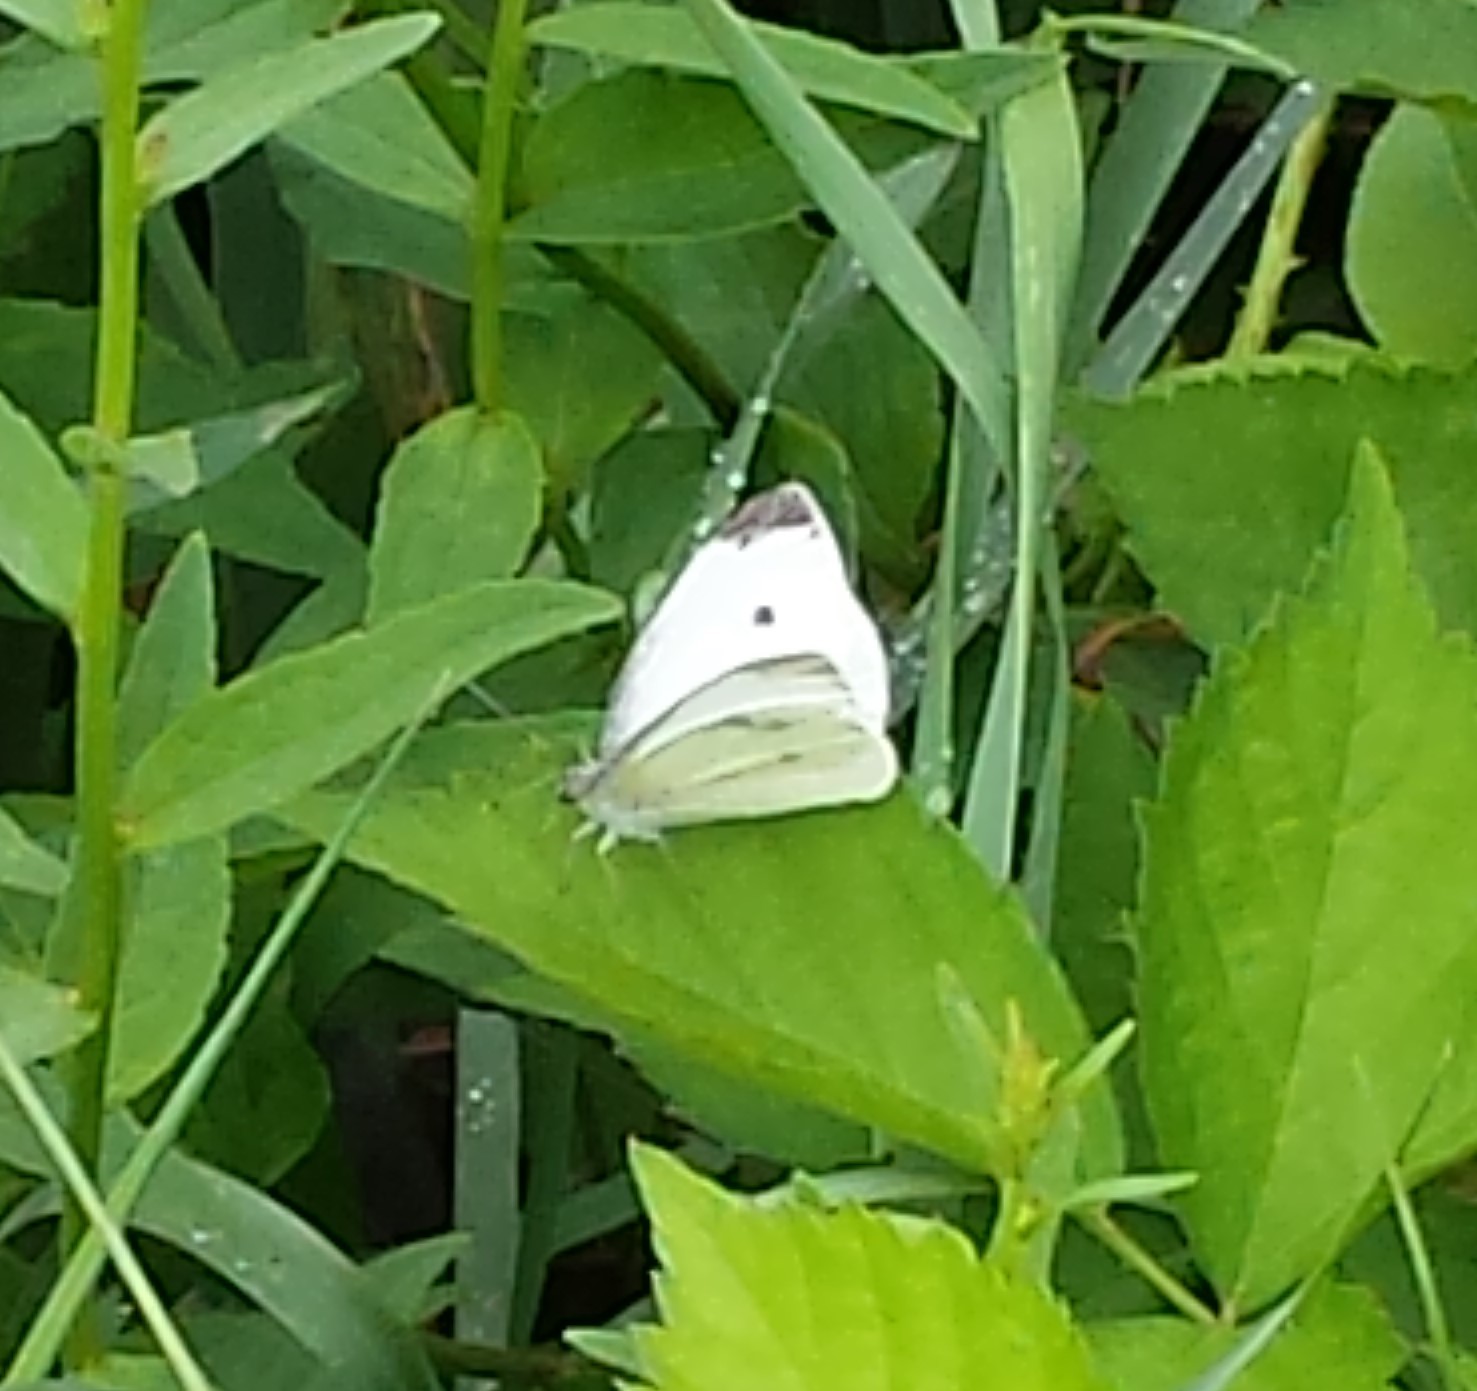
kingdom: Animalia
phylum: Arthropoda
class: Insecta
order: Lepidoptera
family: Pieridae
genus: Pieris
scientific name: Pieris rapae
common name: Small white
